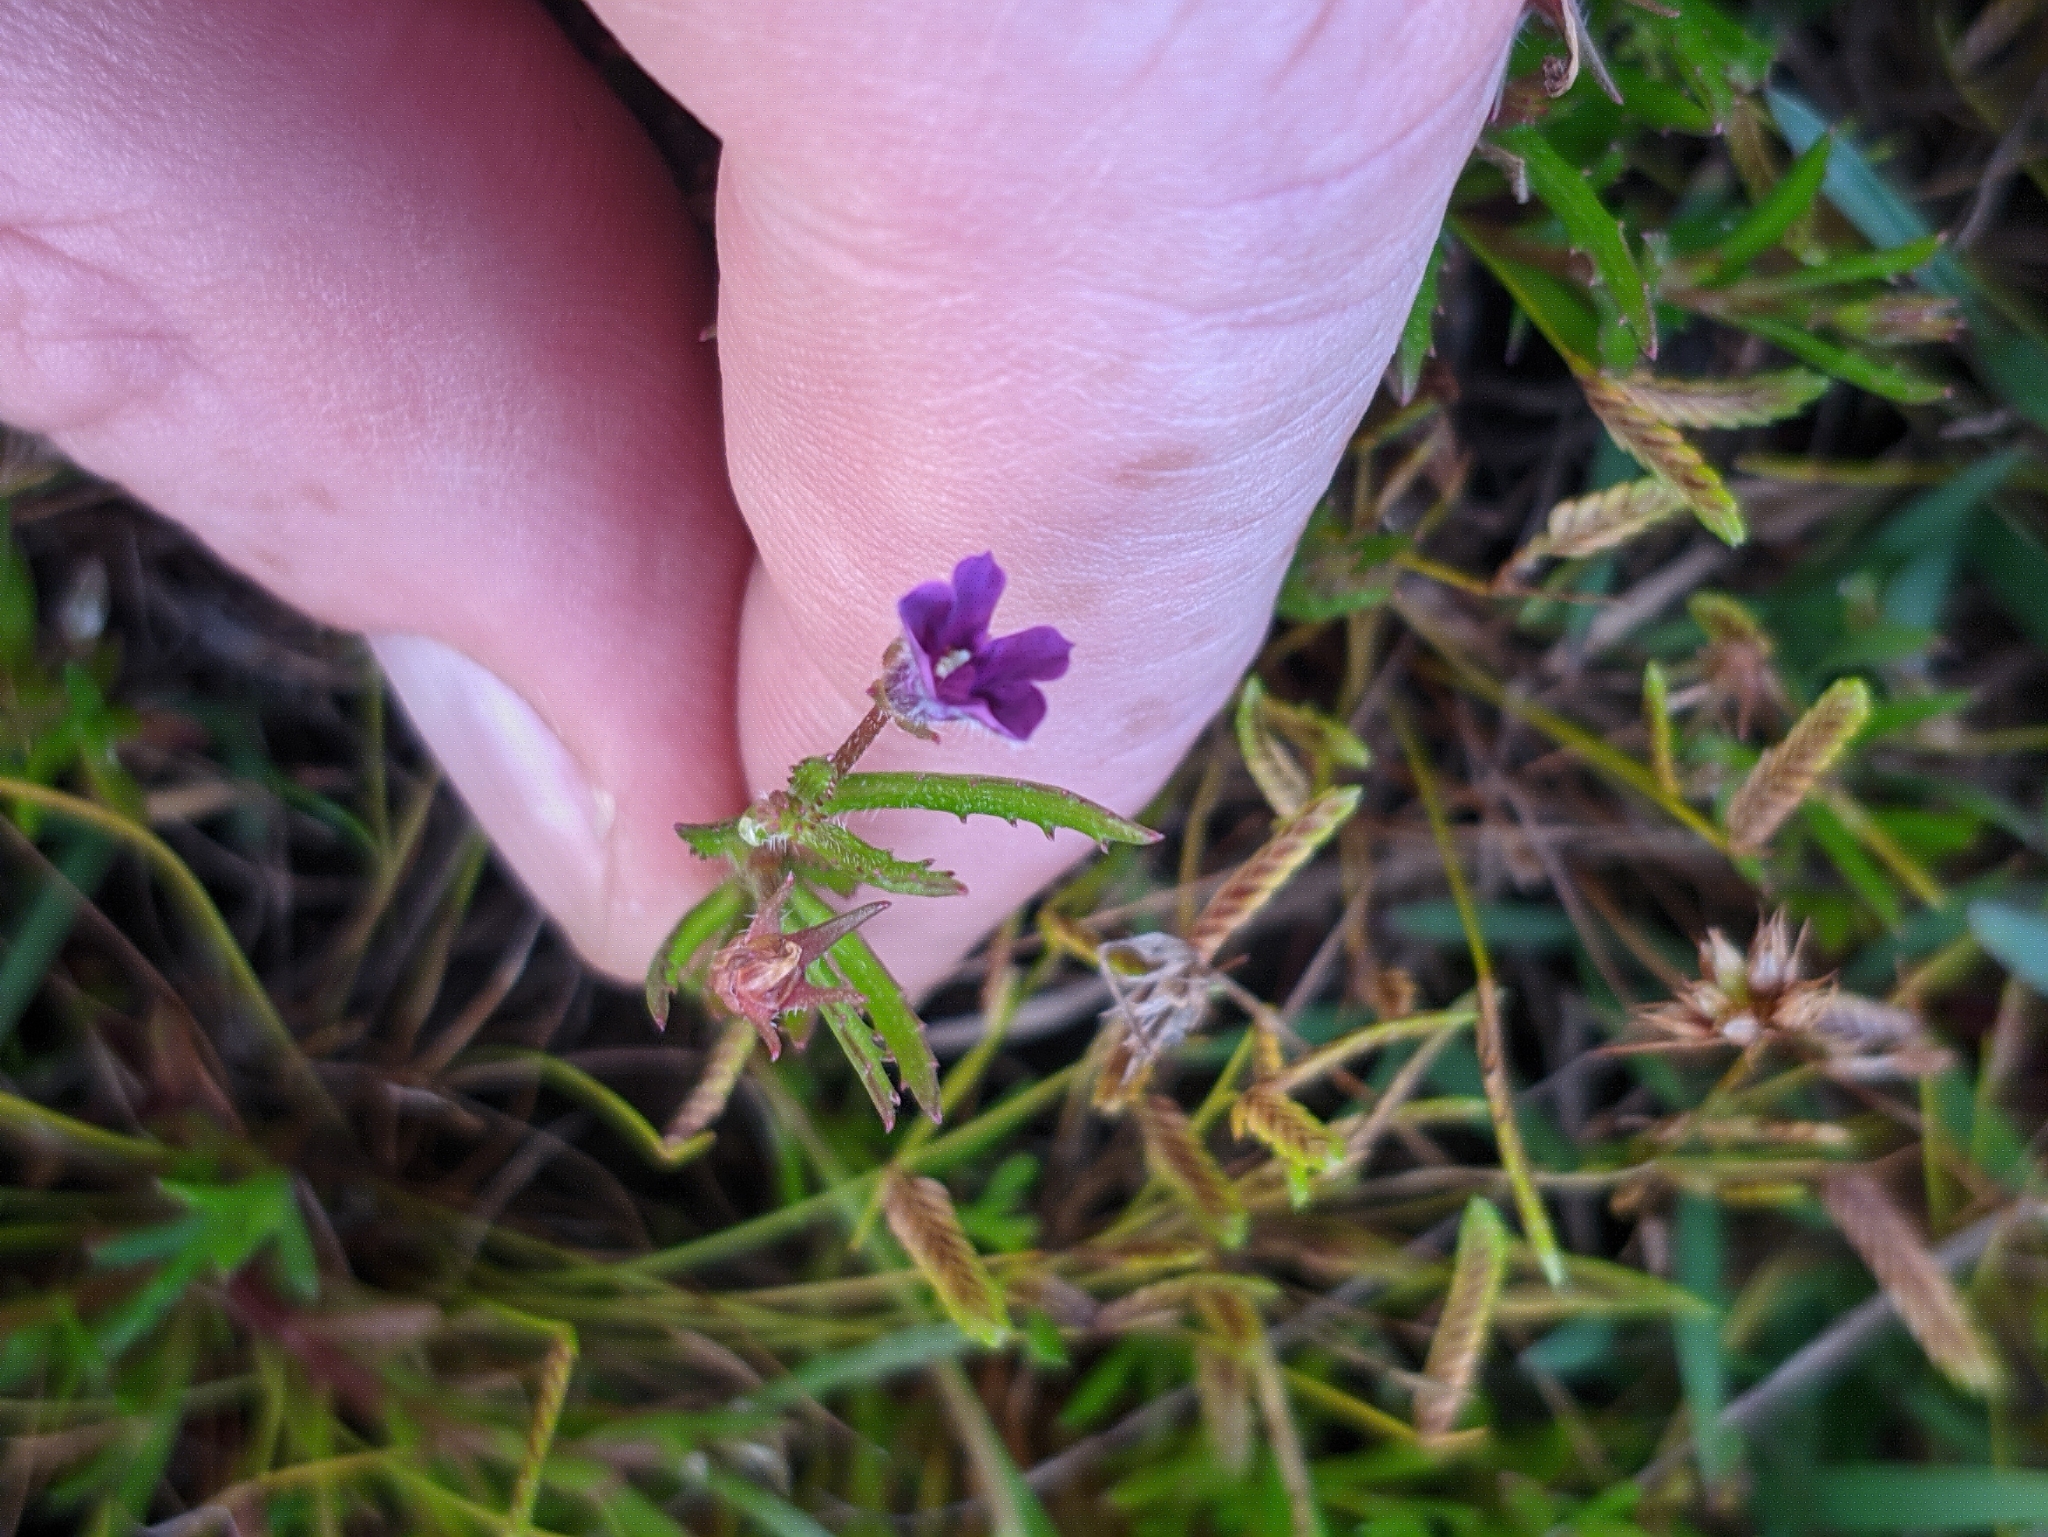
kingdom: Plantae
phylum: Tracheophyta
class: Magnoliopsida
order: Asterales
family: Campanulaceae
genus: Monopsis
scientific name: Monopsis debilis
